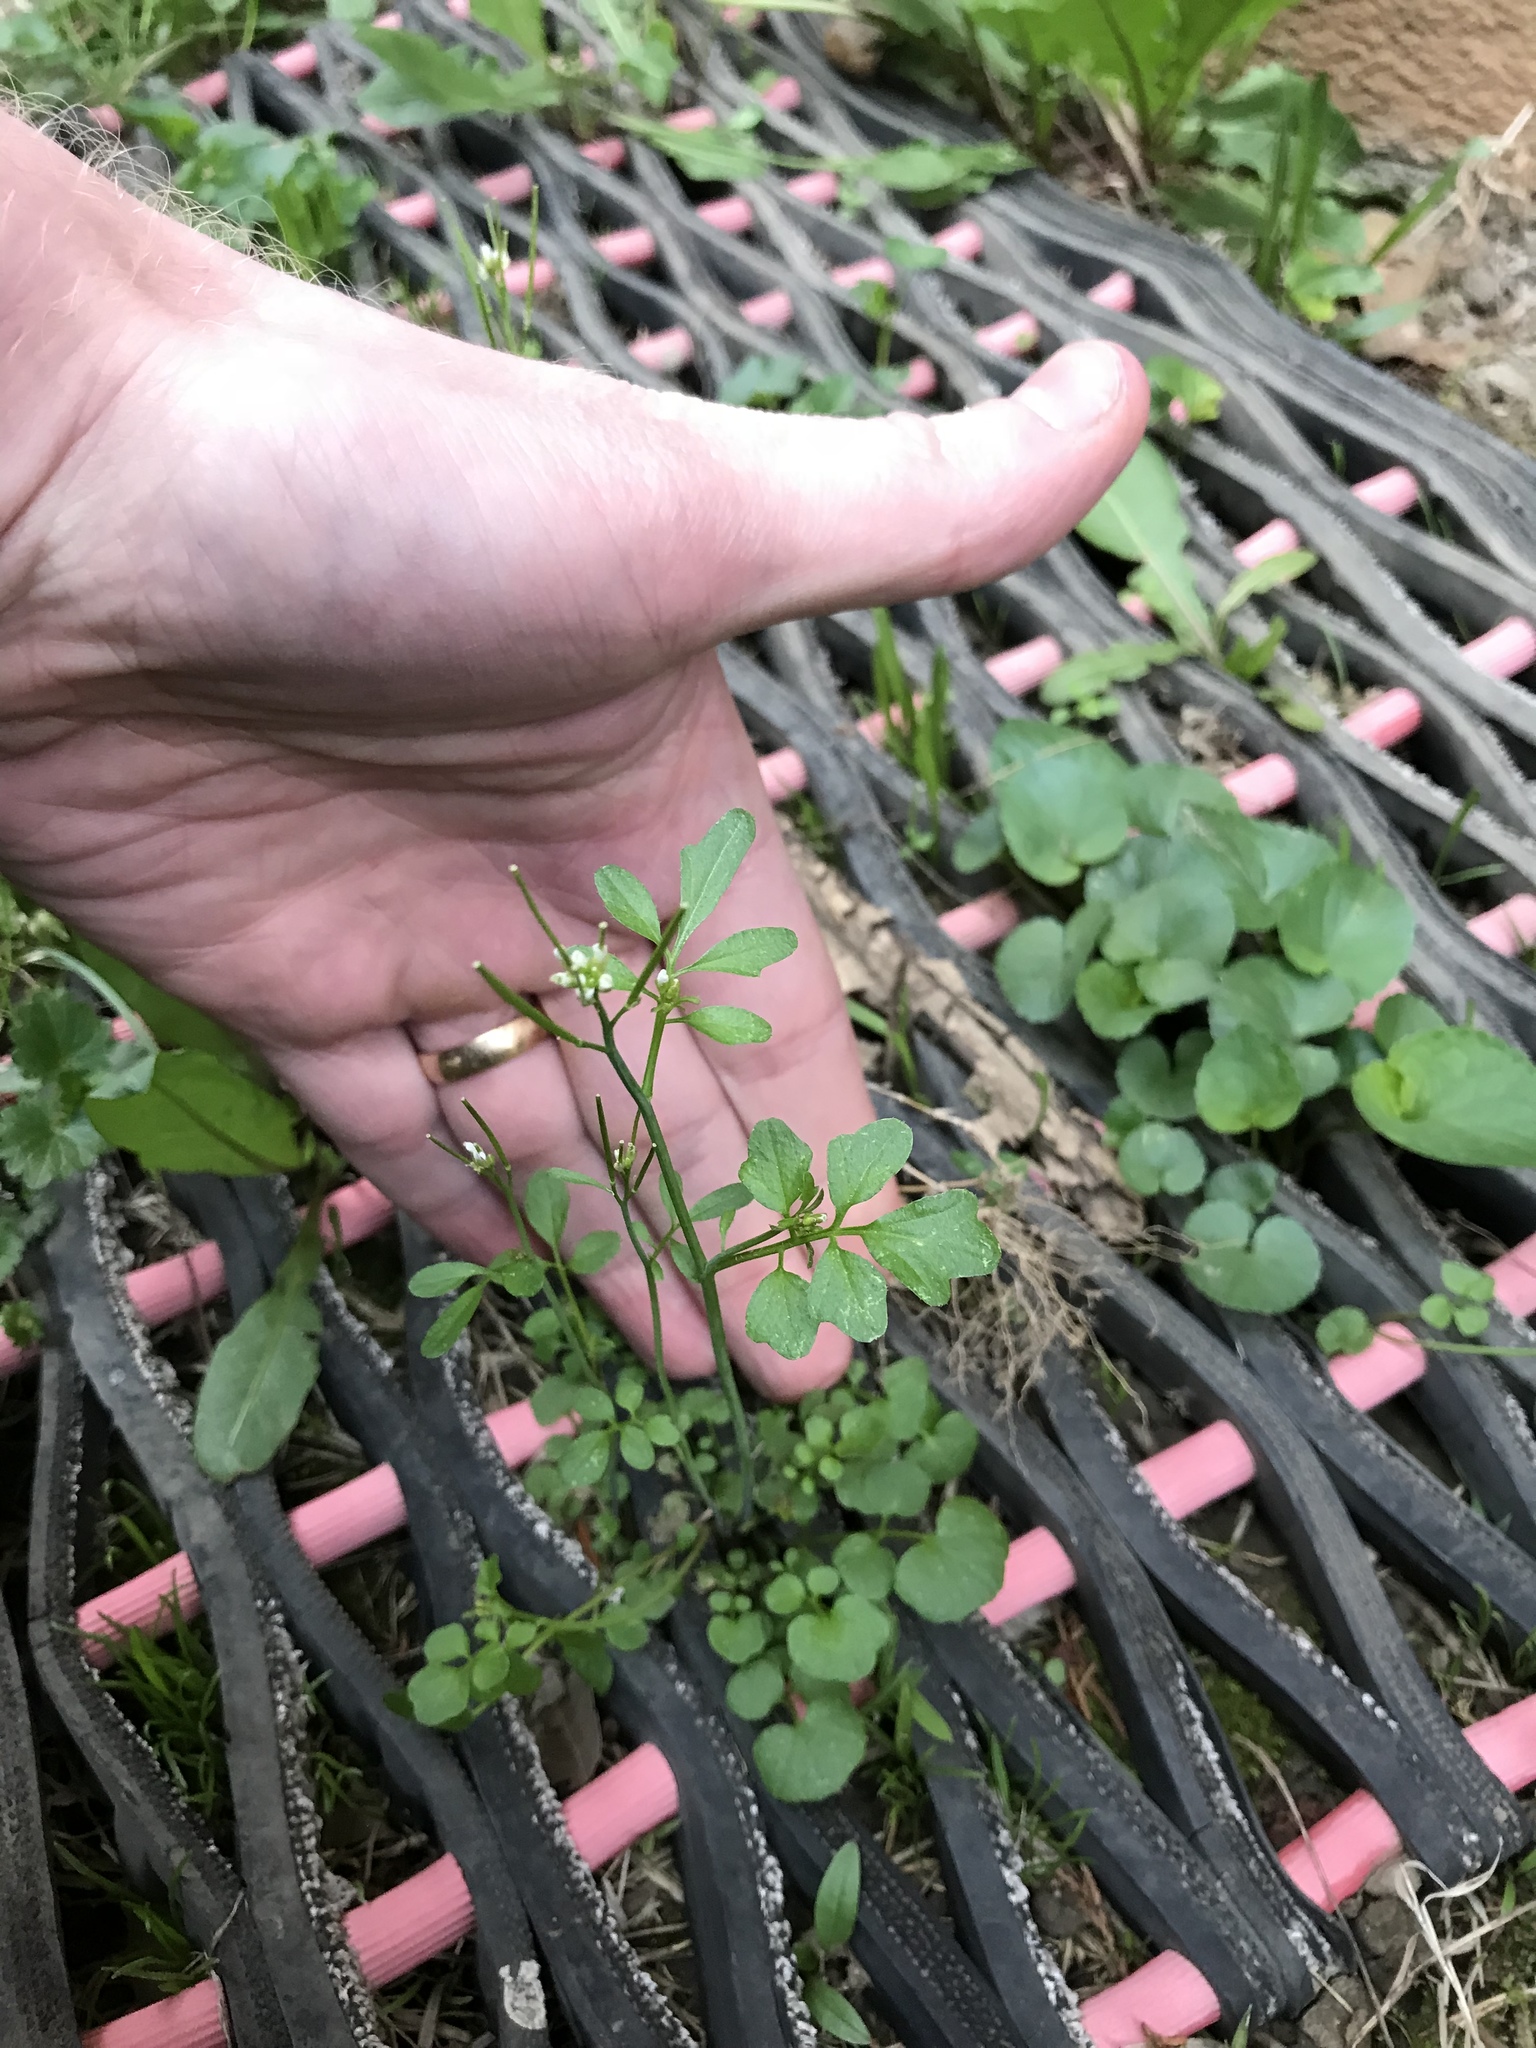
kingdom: Plantae
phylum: Tracheophyta
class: Magnoliopsida
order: Brassicales
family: Brassicaceae
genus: Cardamine
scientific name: Cardamine hirsuta
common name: Hairy bittercress
